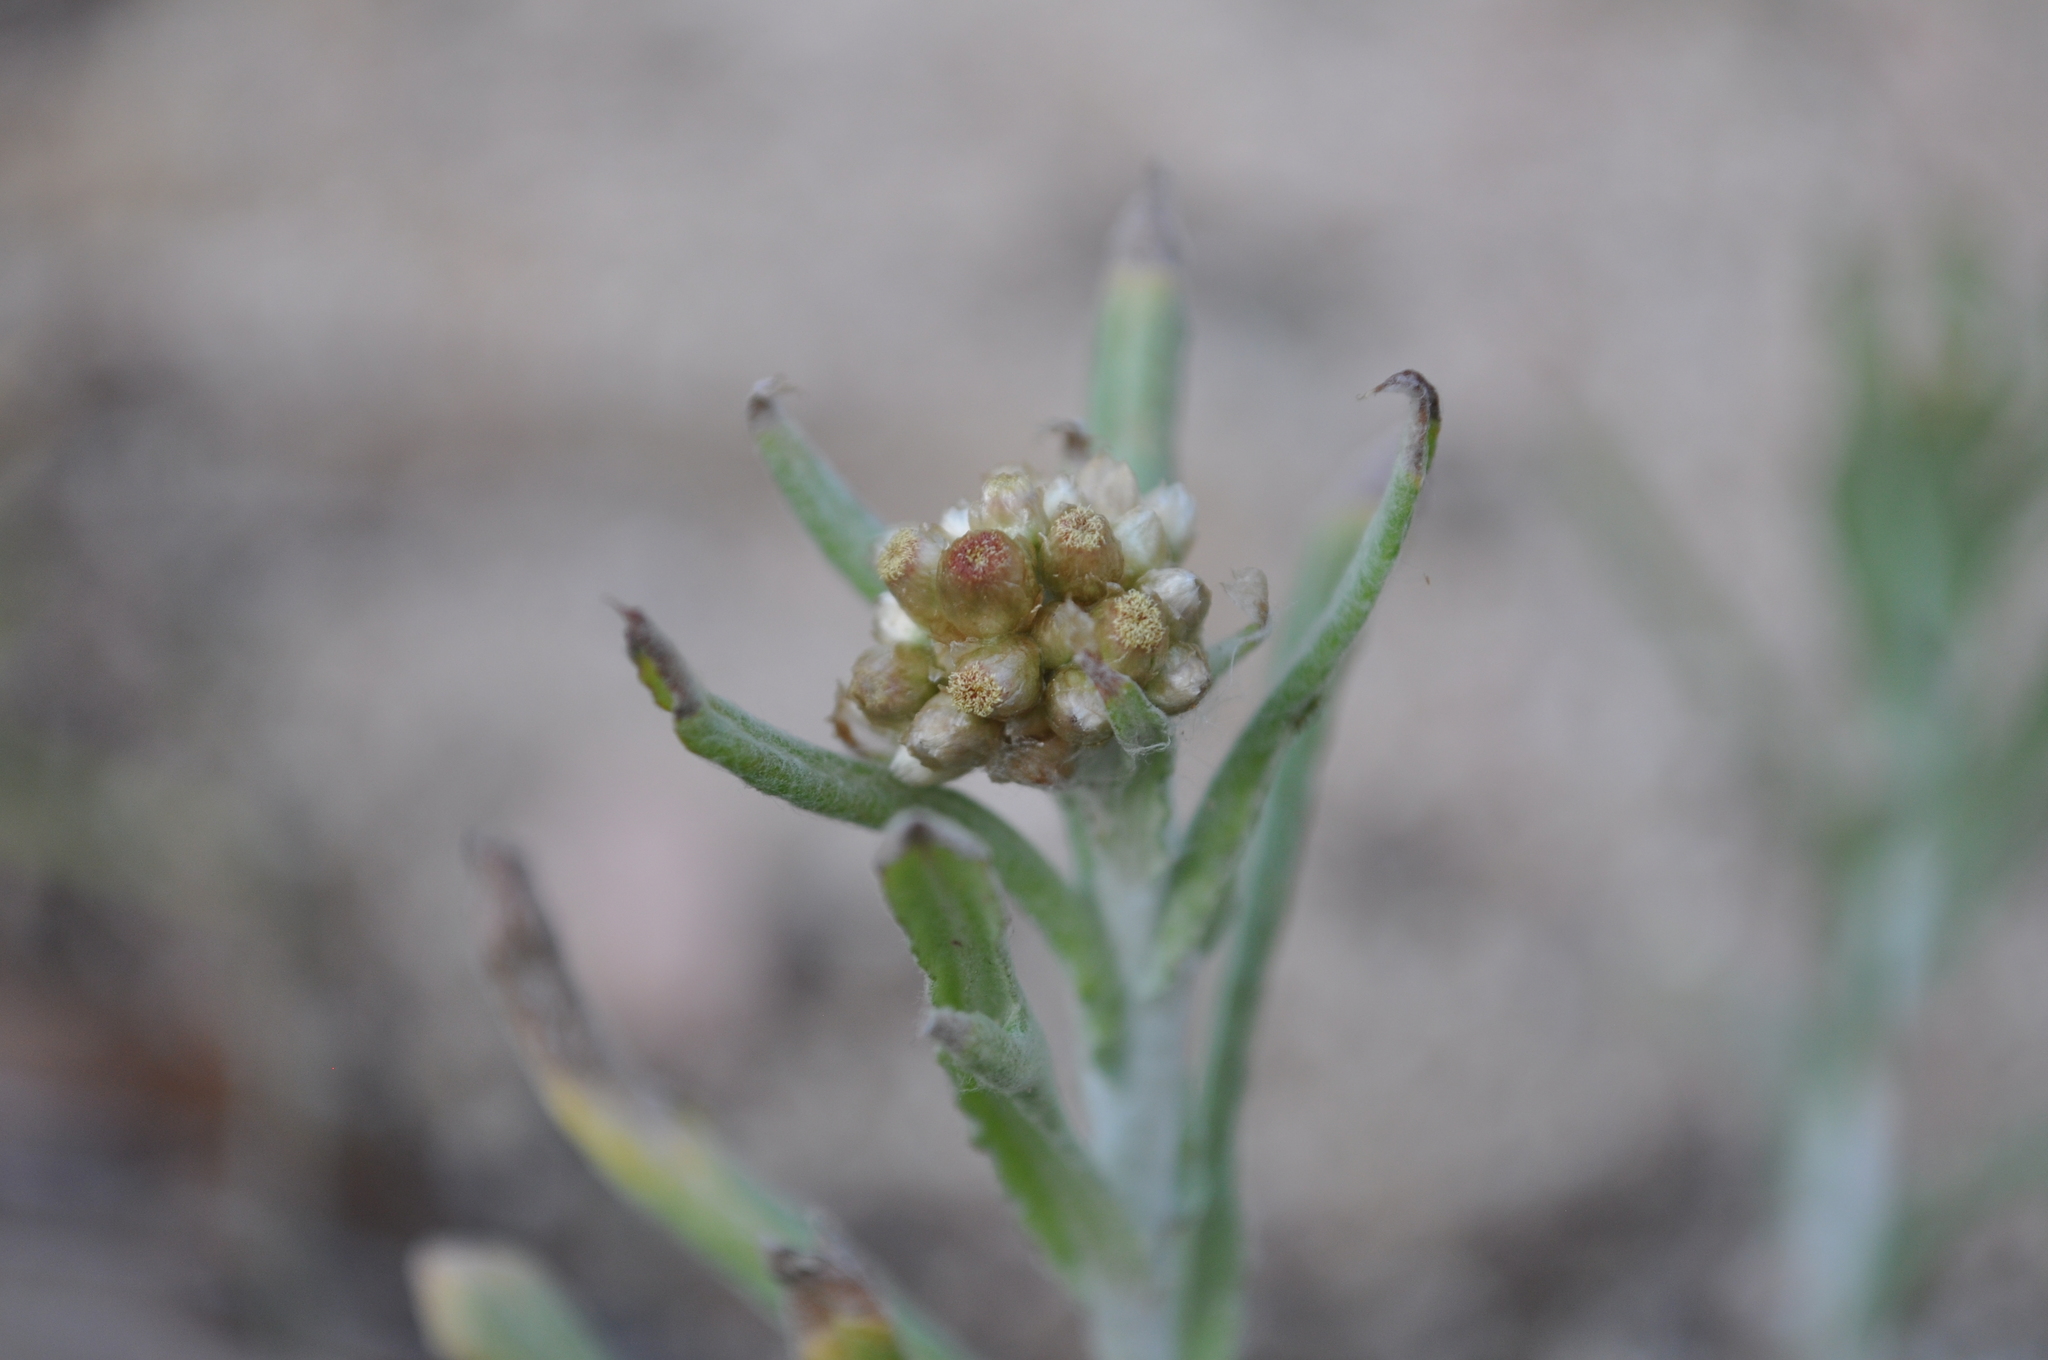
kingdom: Plantae
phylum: Tracheophyta
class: Magnoliopsida
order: Asterales
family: Asteraceae
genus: Helichrysum
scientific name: Helichrysum luteoalbum
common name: Daisy
